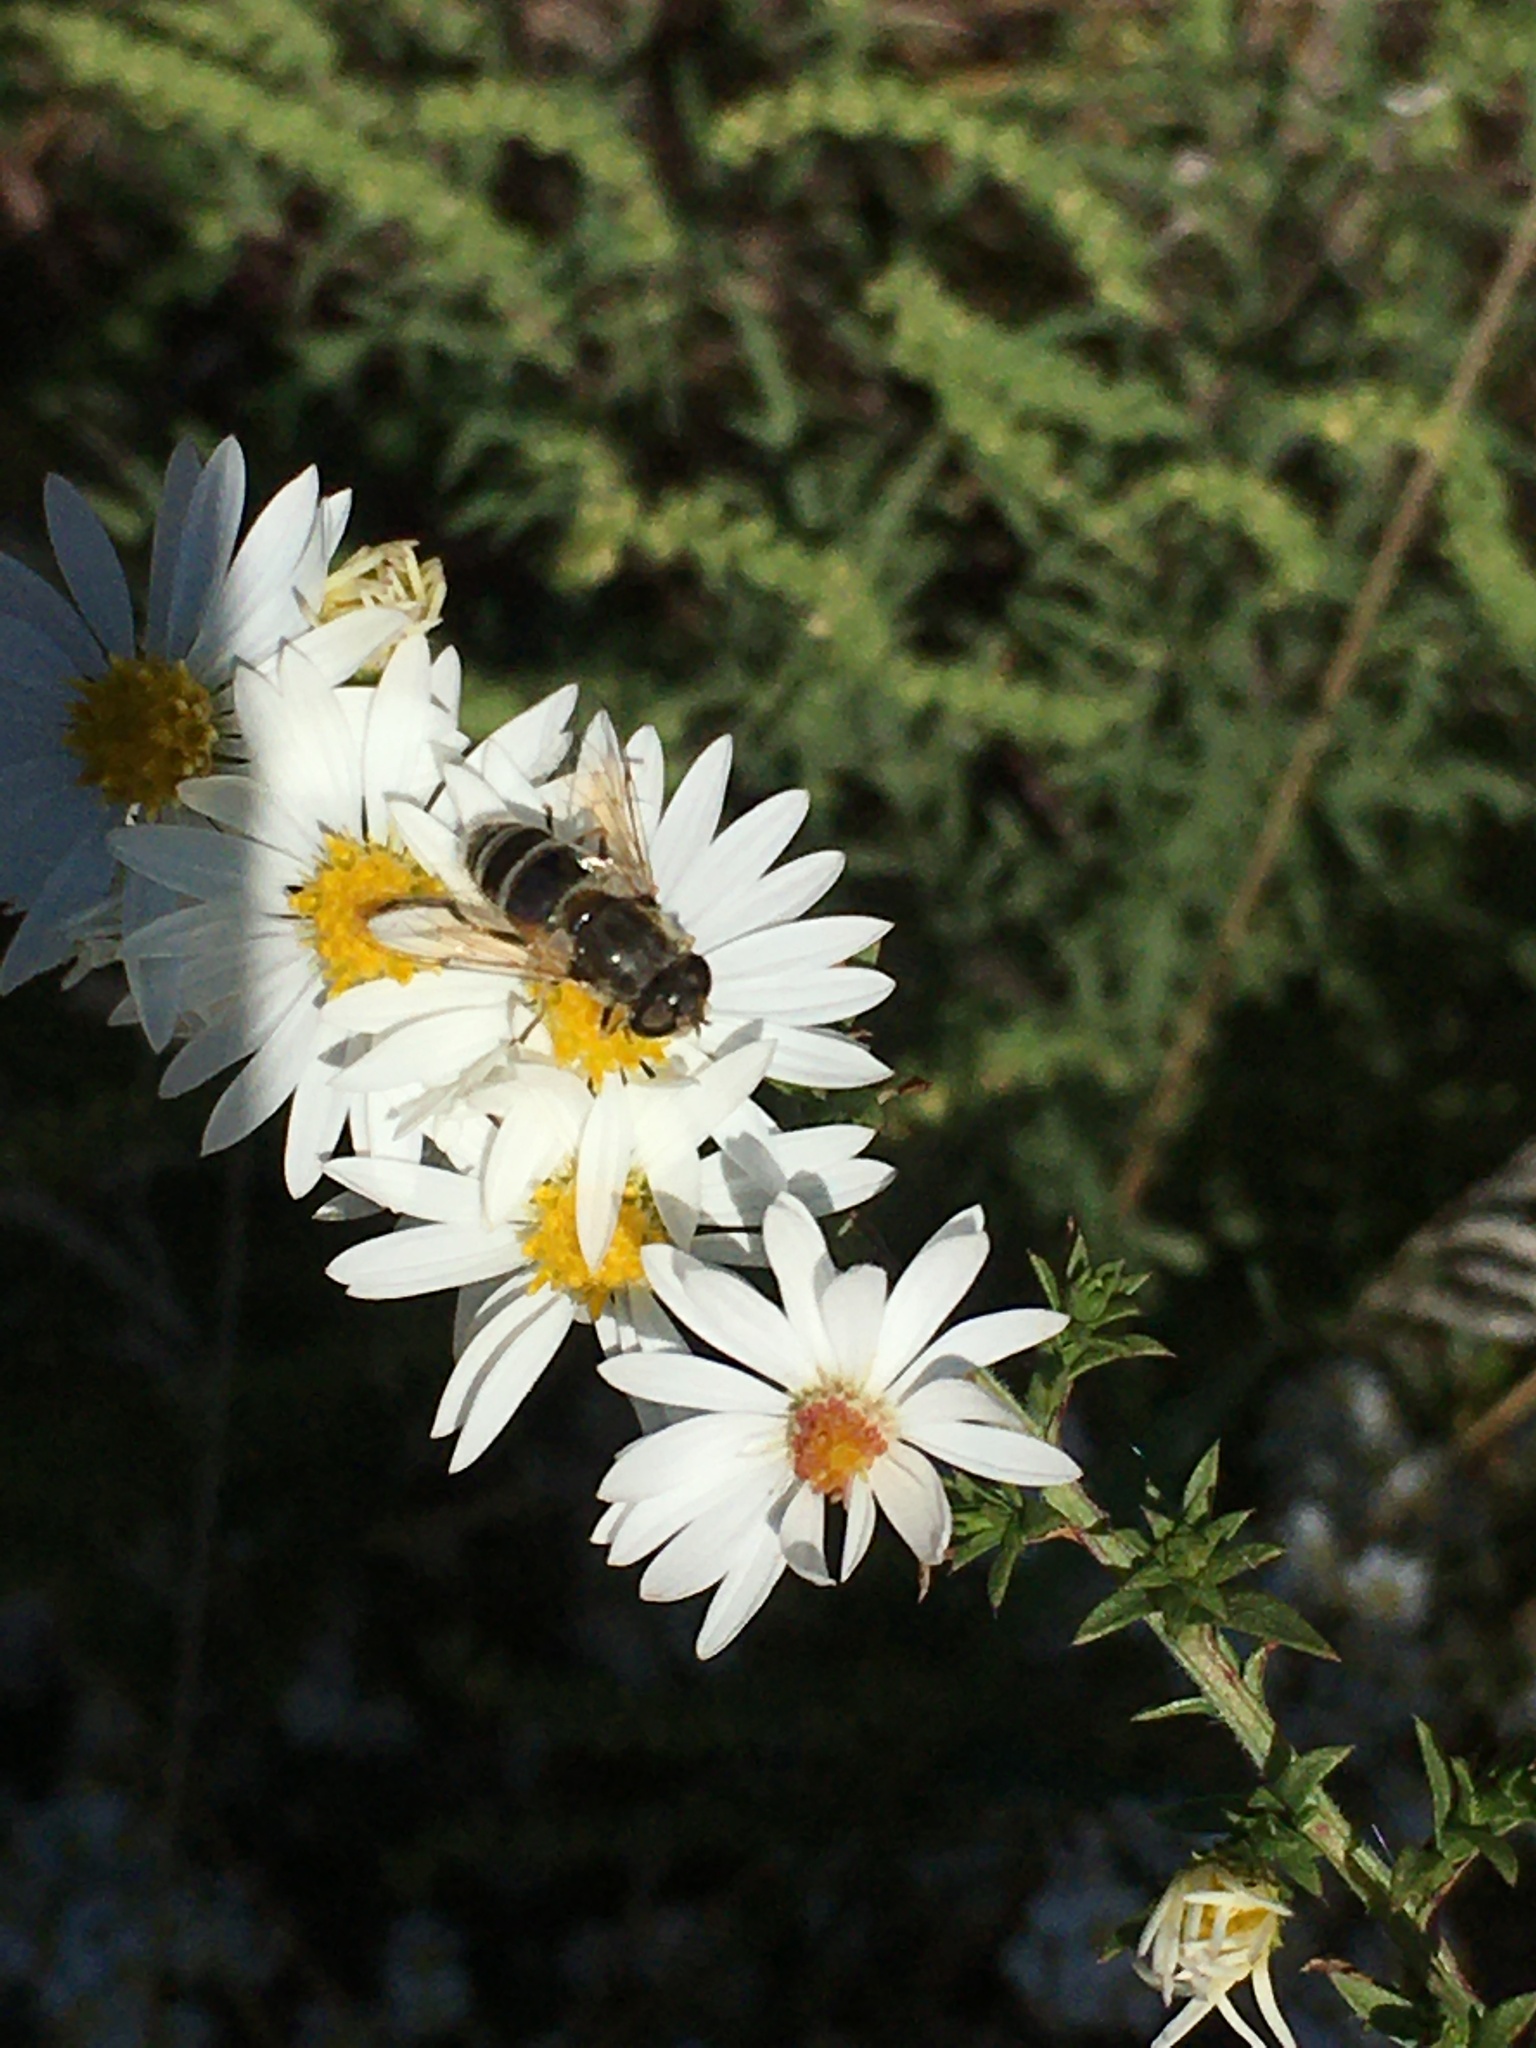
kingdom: Animalia
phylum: Arthropoda
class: Insecta
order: Diptera
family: Syrphidae
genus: Eristalis
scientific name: Eristalis arbustorum
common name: Hover fly
